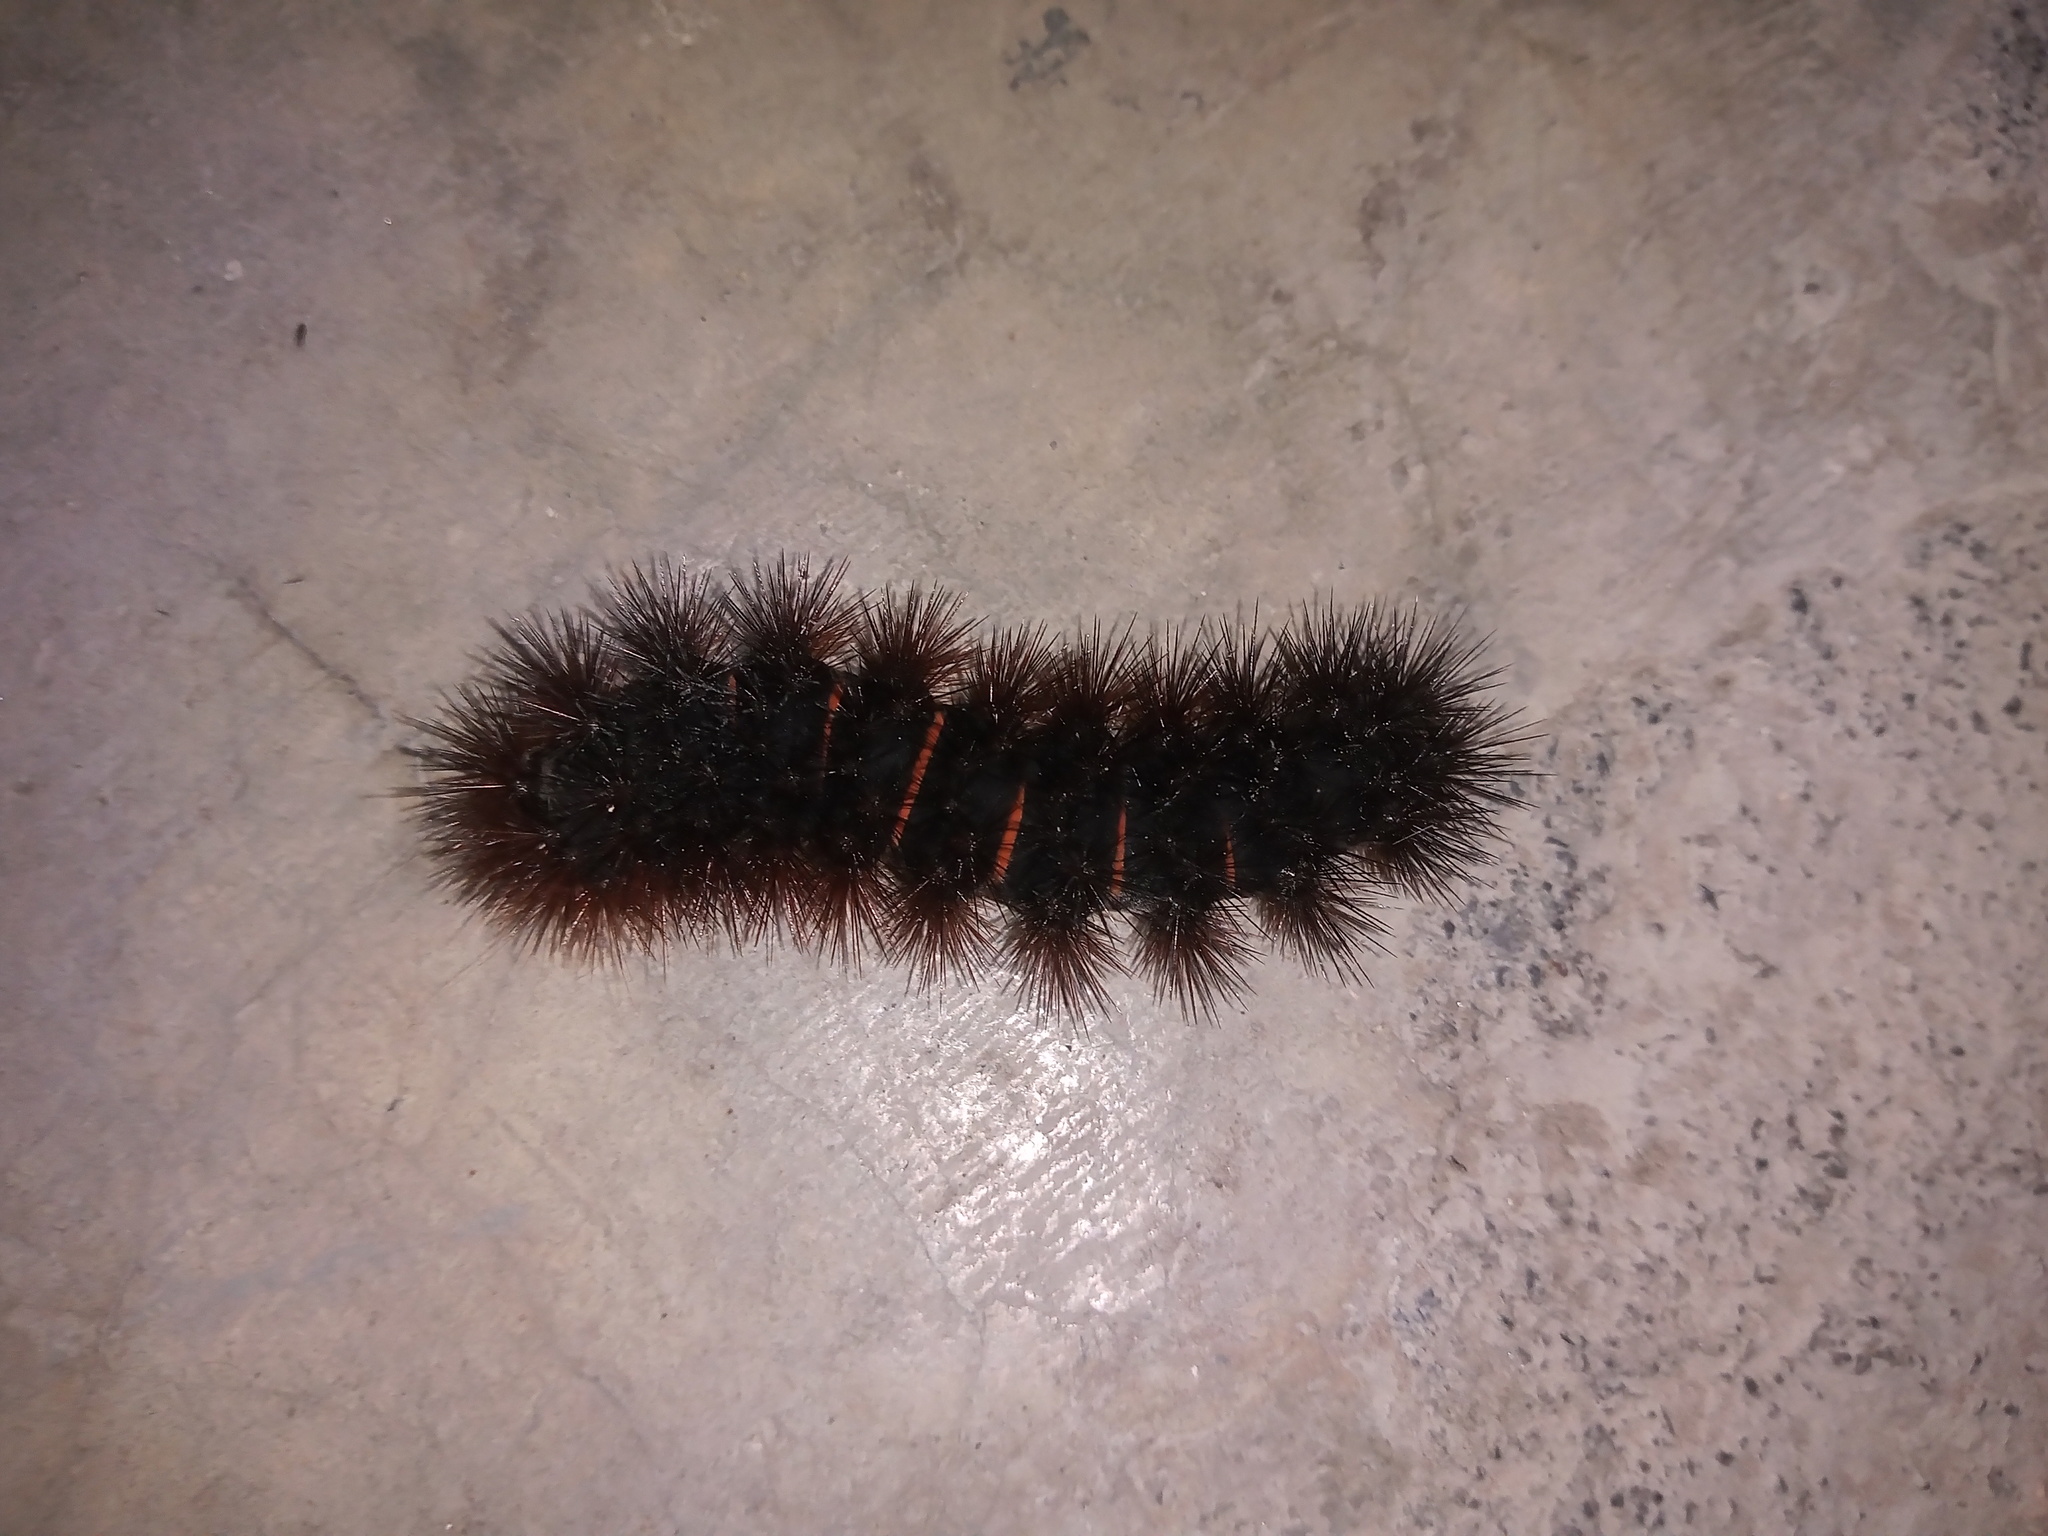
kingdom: Animalia
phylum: Arthropoda
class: Insecta
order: Lepidoptera
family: Erebidae
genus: Hypercompe
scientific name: Hypercompe scribonia
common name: Giant leopard moth
